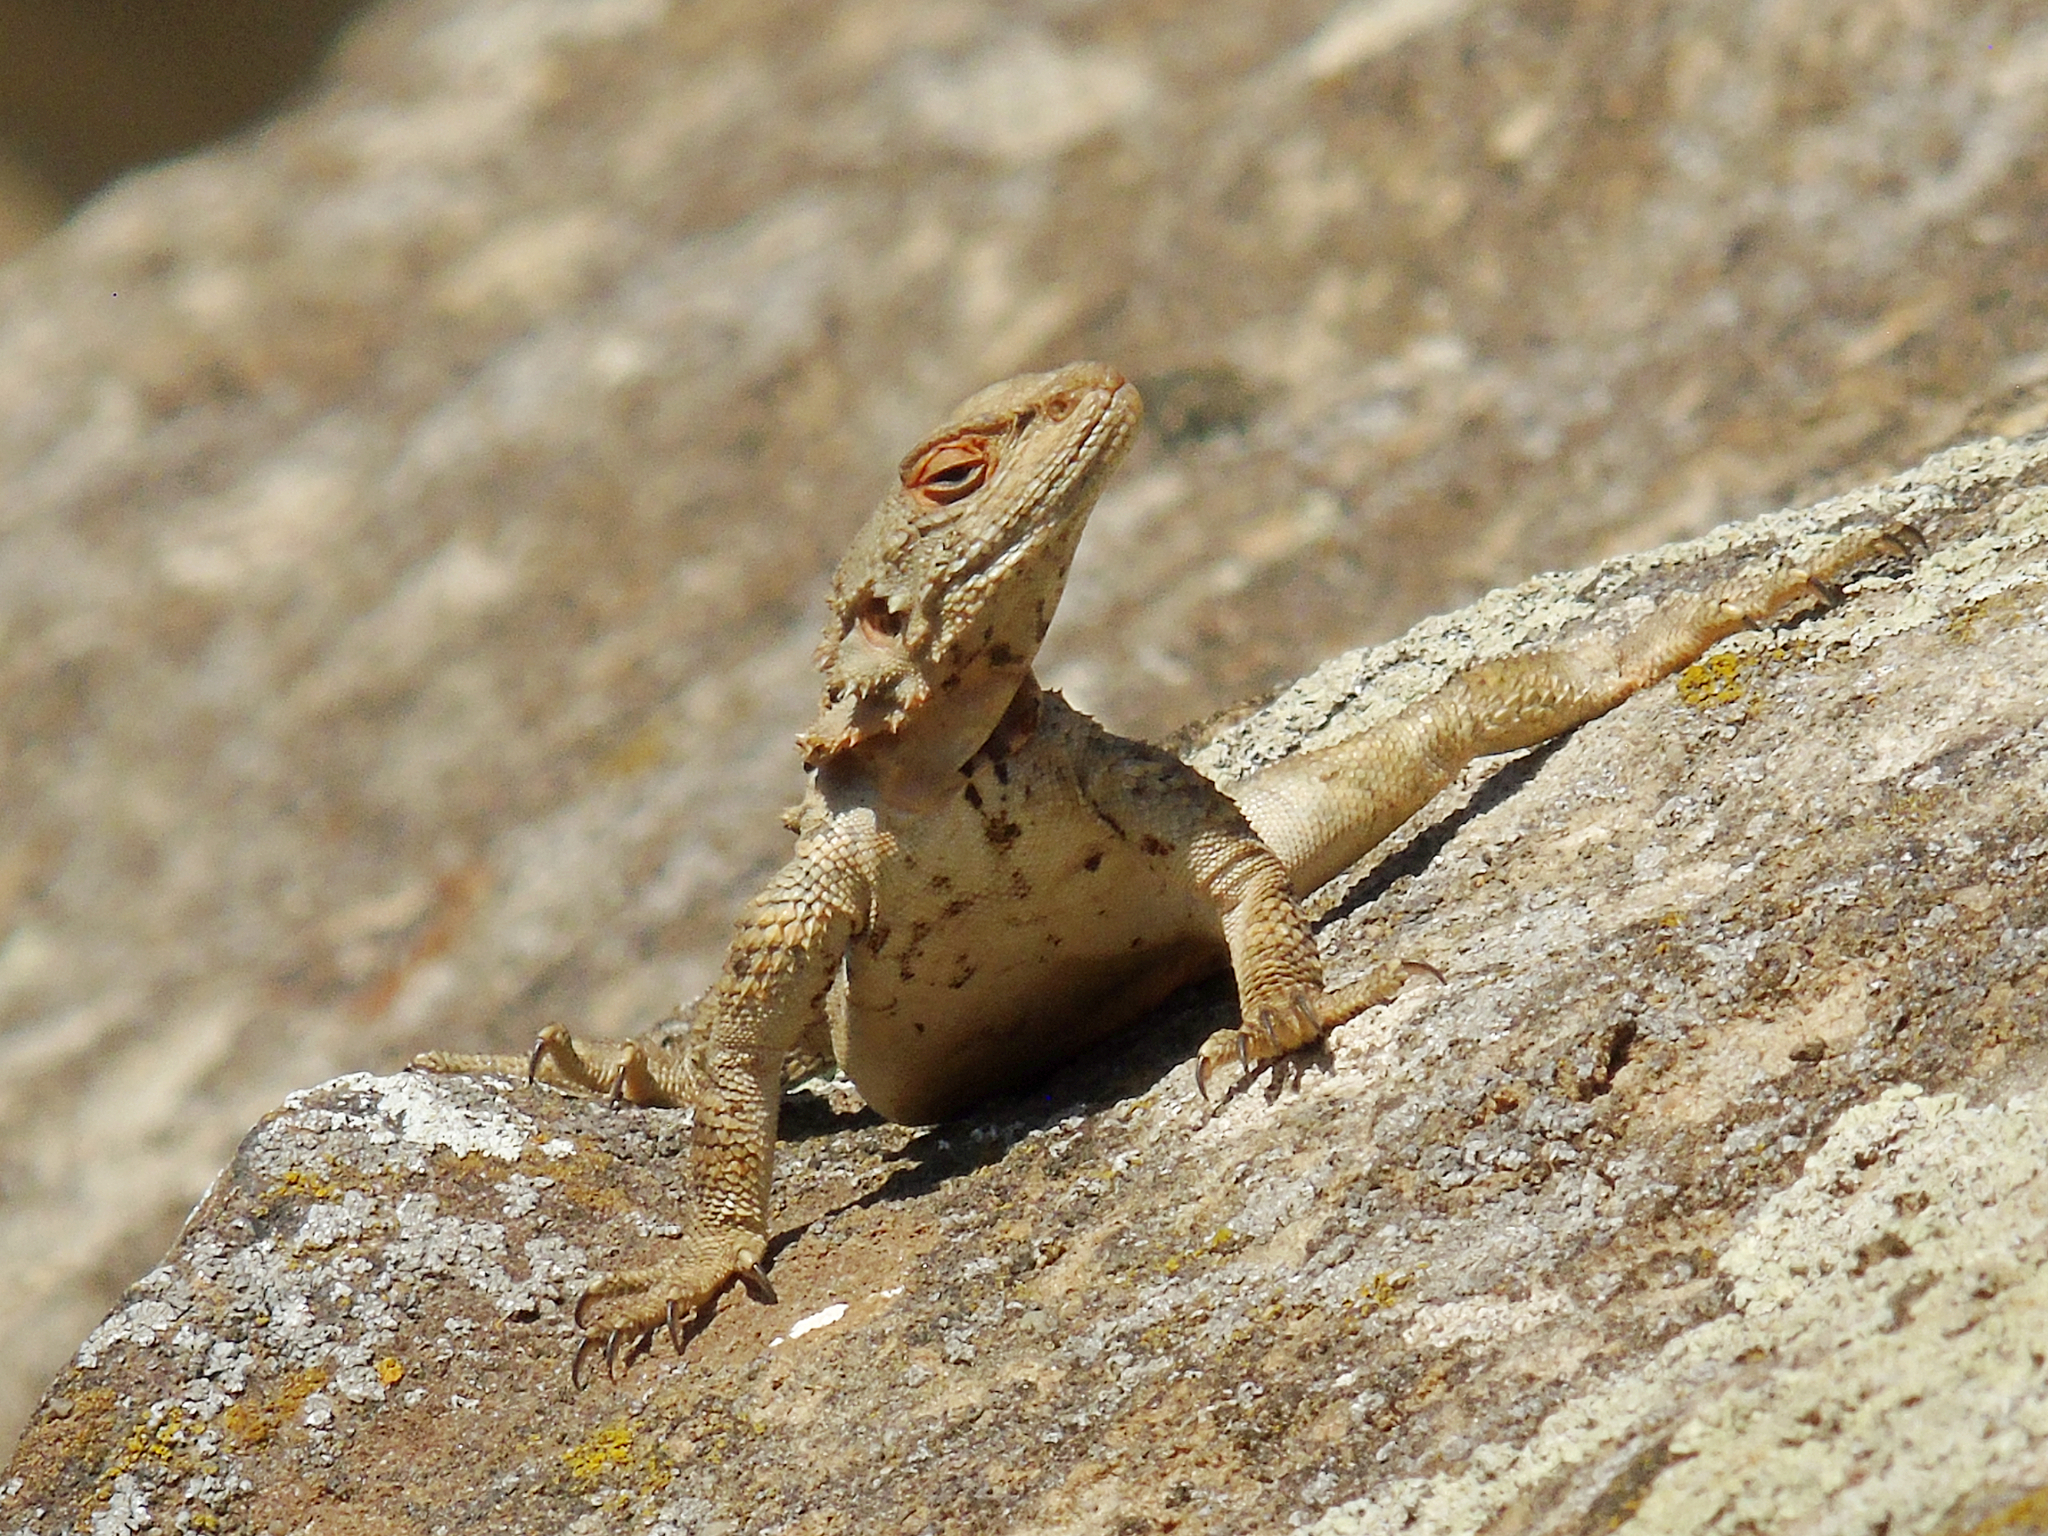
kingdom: Animalia
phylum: Chordata
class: Squamata
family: Agamidae
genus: Paralaudakia
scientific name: Paralaudakia caucasia
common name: Caucasian agama
